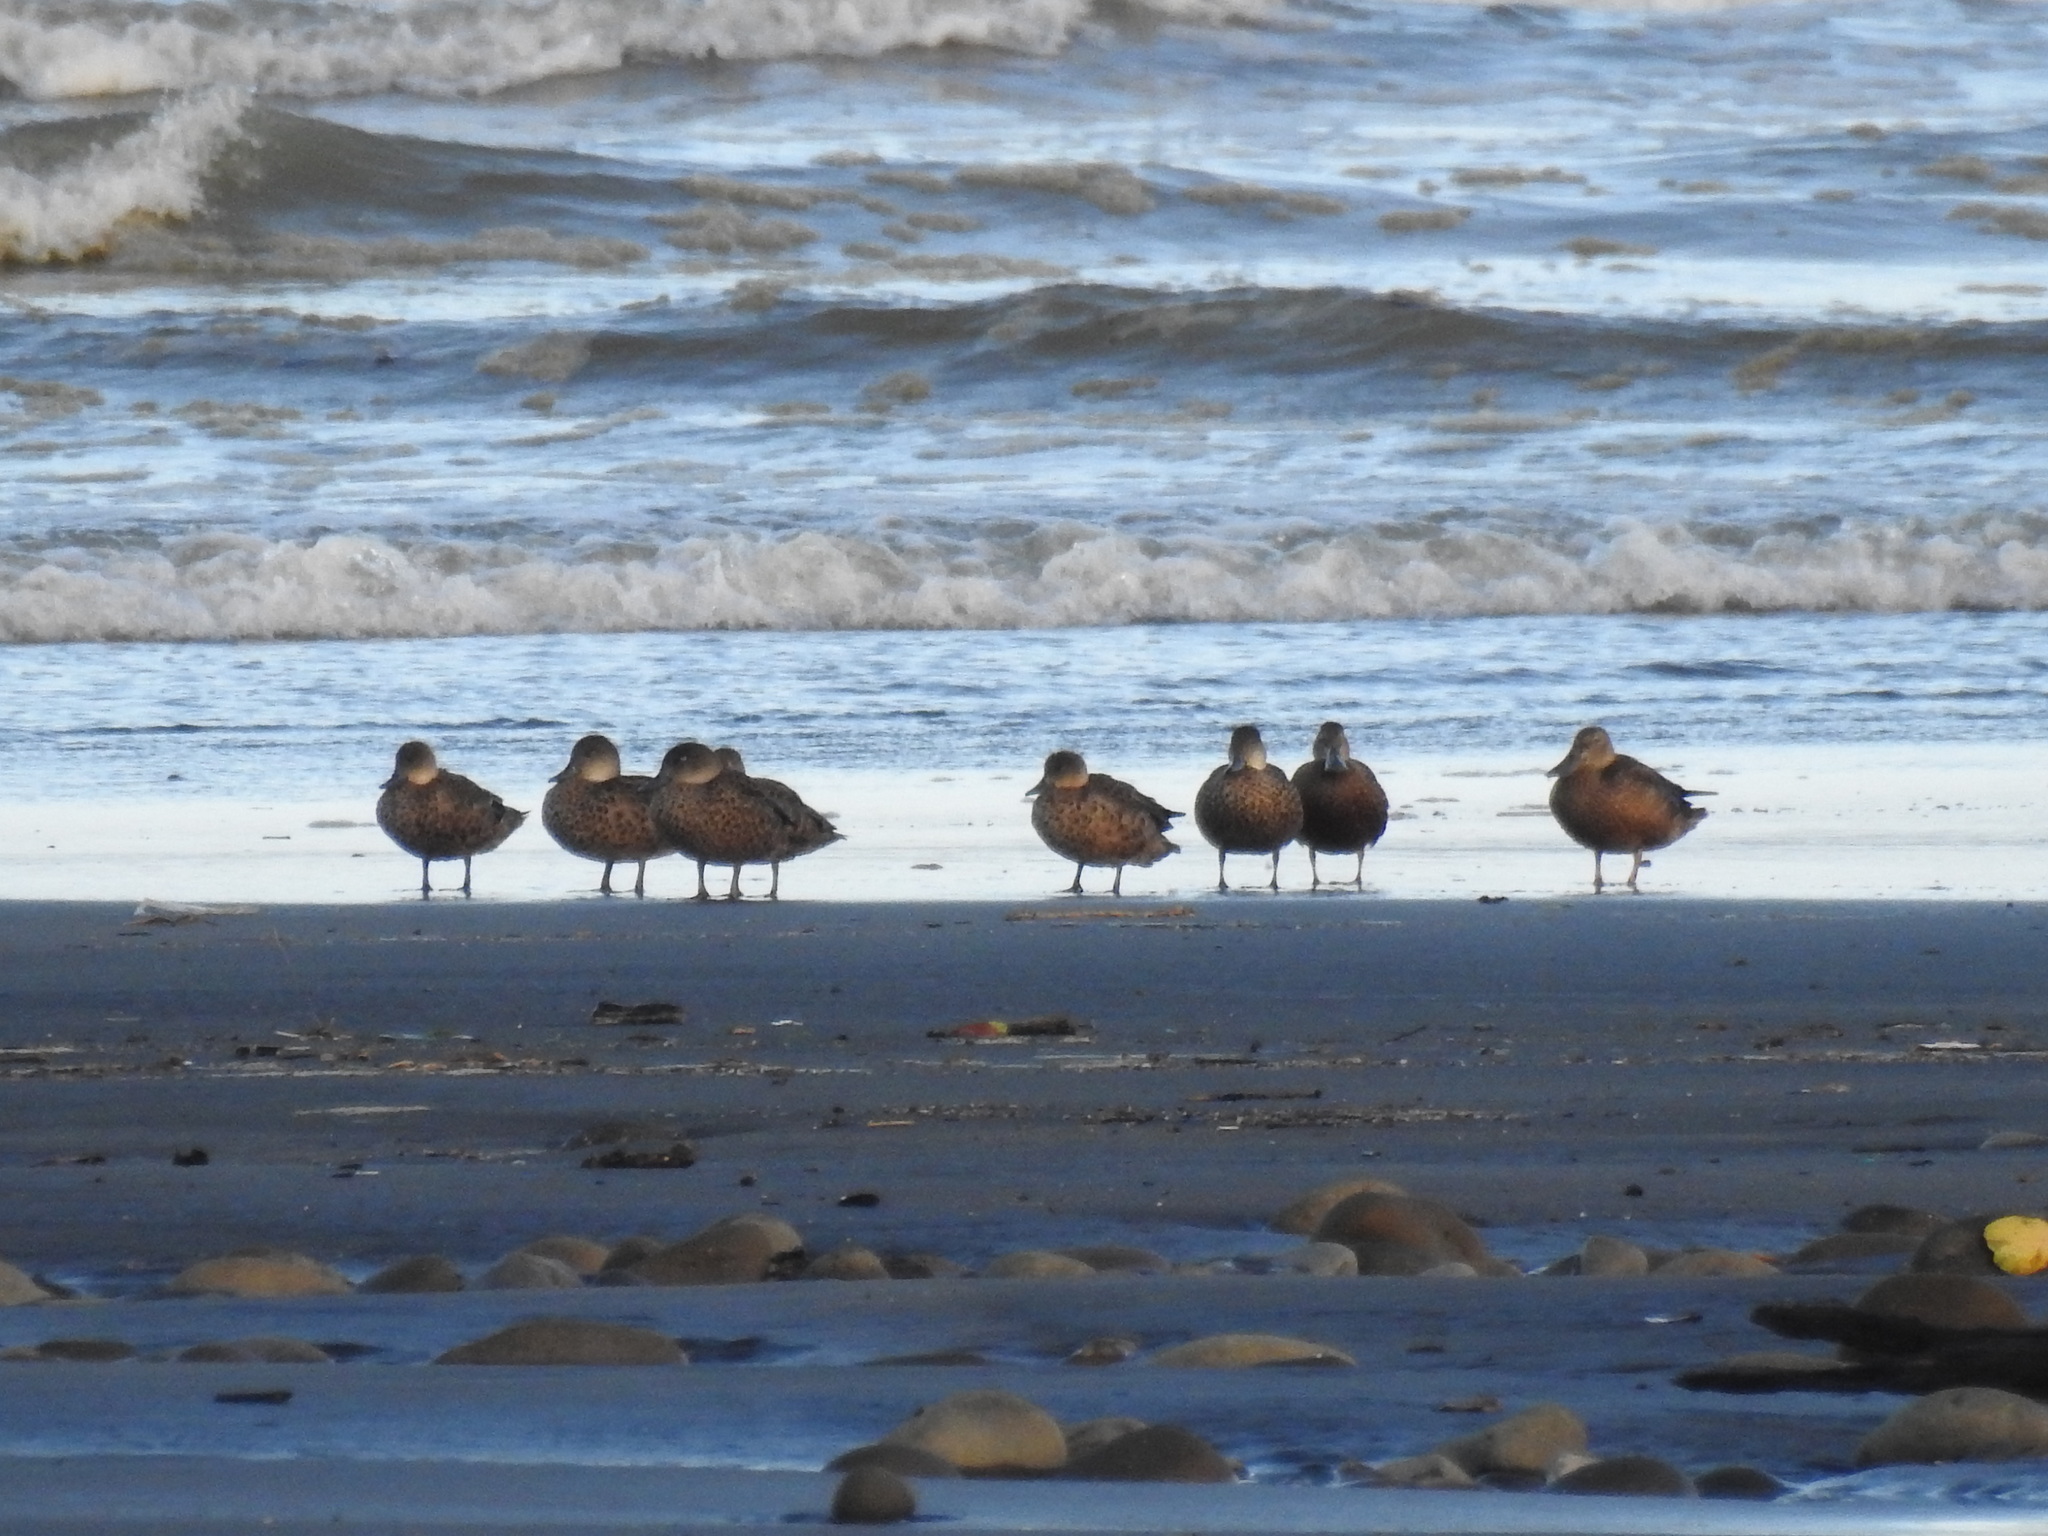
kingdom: Animalia
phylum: Chordata
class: Aves
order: Anseriformes
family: Anatidae
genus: Anas
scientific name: Anas gracilis
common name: Grey teal
